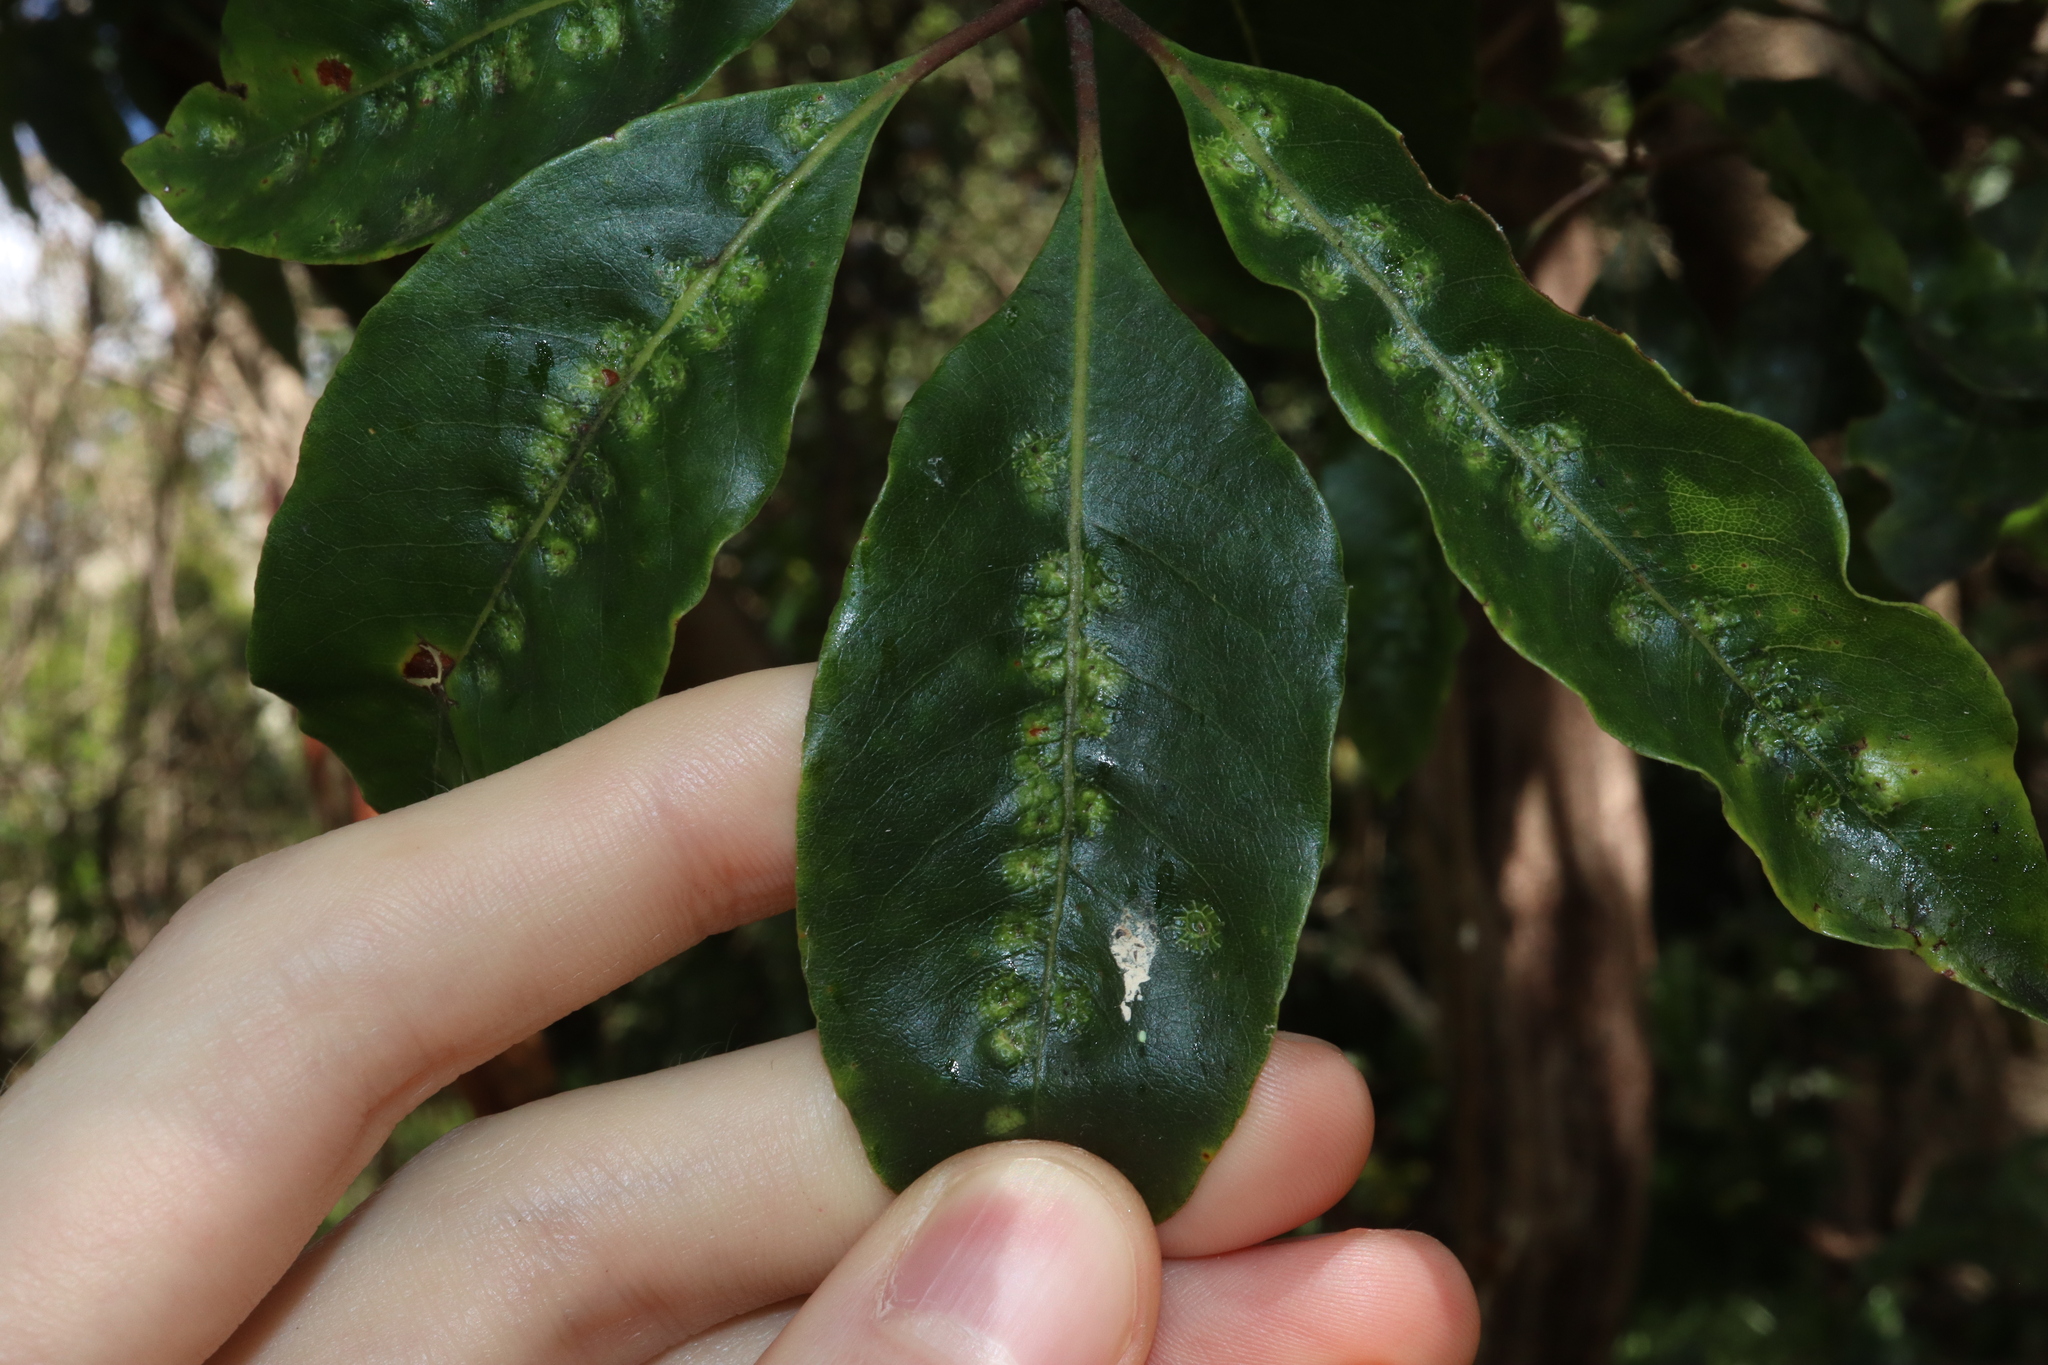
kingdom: Animalia
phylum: Arthropoda
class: Insecta
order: Diptera
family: Agromyzidae
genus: Phytoliriomyza
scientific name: Phytoliriomyza pittosporophylli
